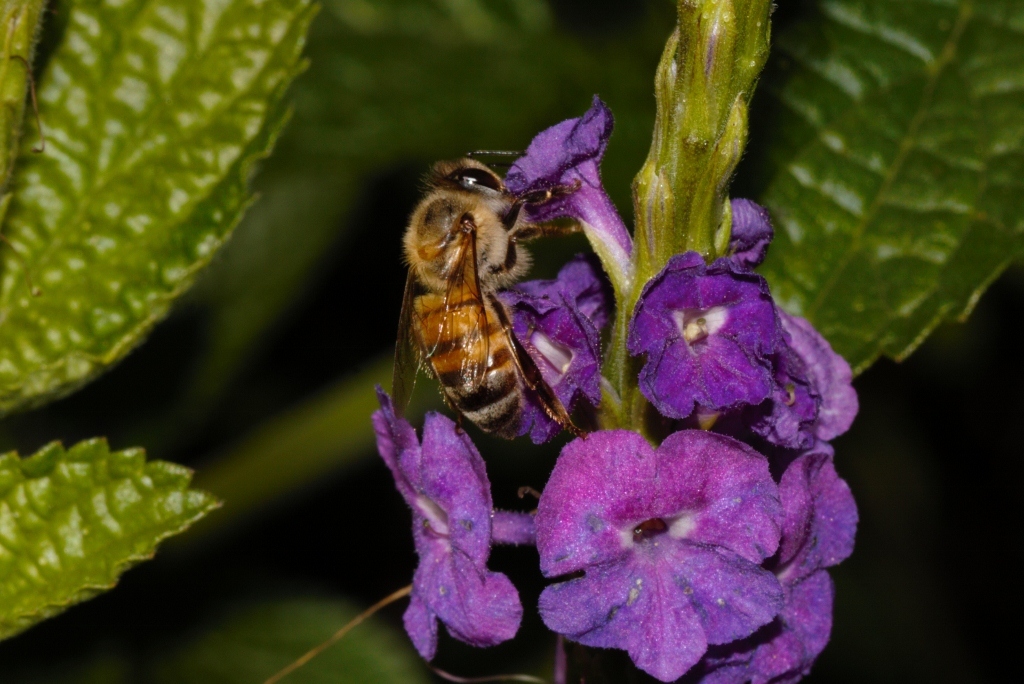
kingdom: Animalia
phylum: Arthropoda
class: Insecta
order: Hymenoptera
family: Apidae
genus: Apis
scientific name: Apis mellifera
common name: Honey bee
